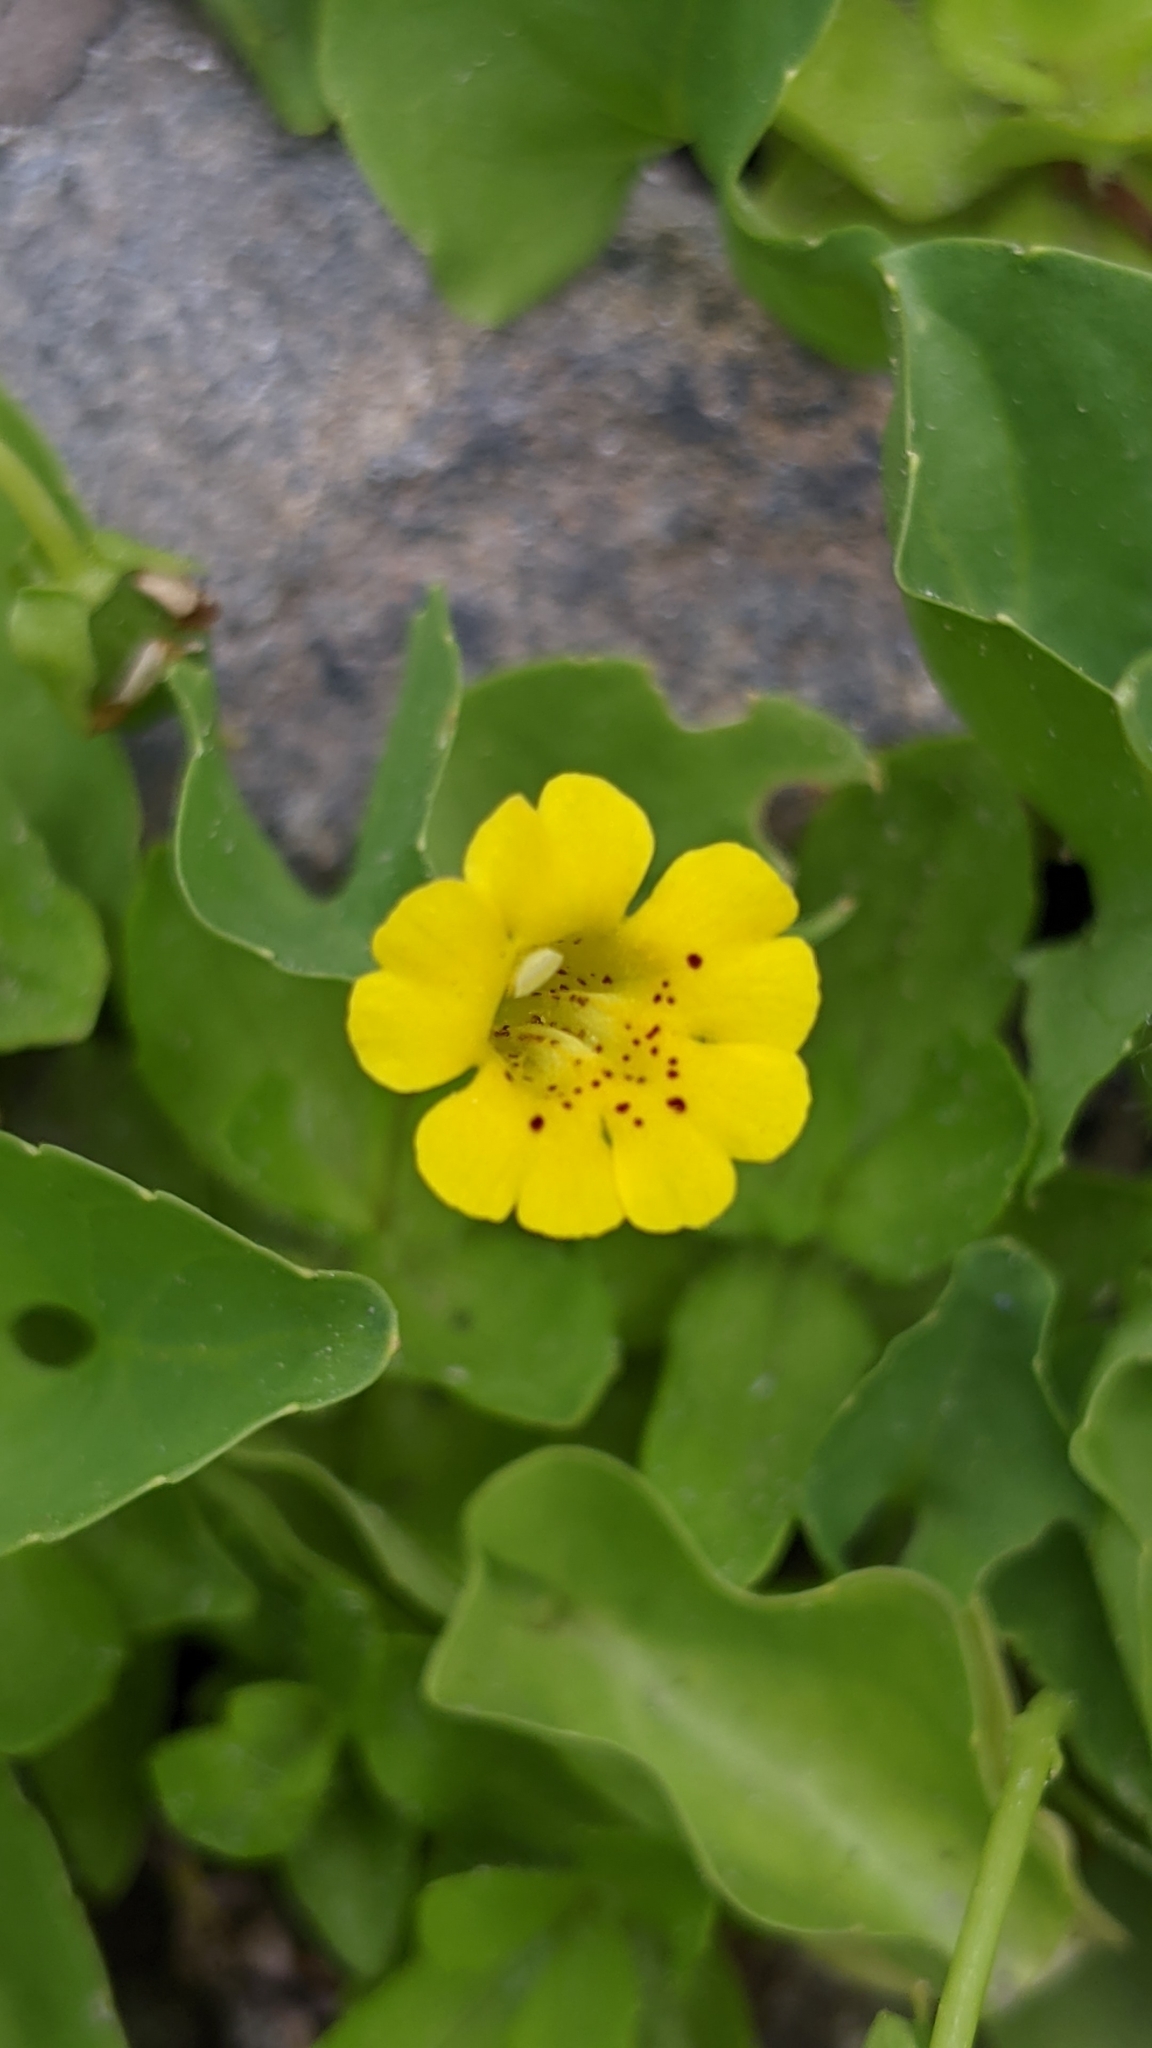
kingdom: Plantae
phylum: Tracheophyta
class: Magnoliopsida
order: Lamiales
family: Phrymaceae
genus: Erythranthe
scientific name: Erythranthe primuloides
